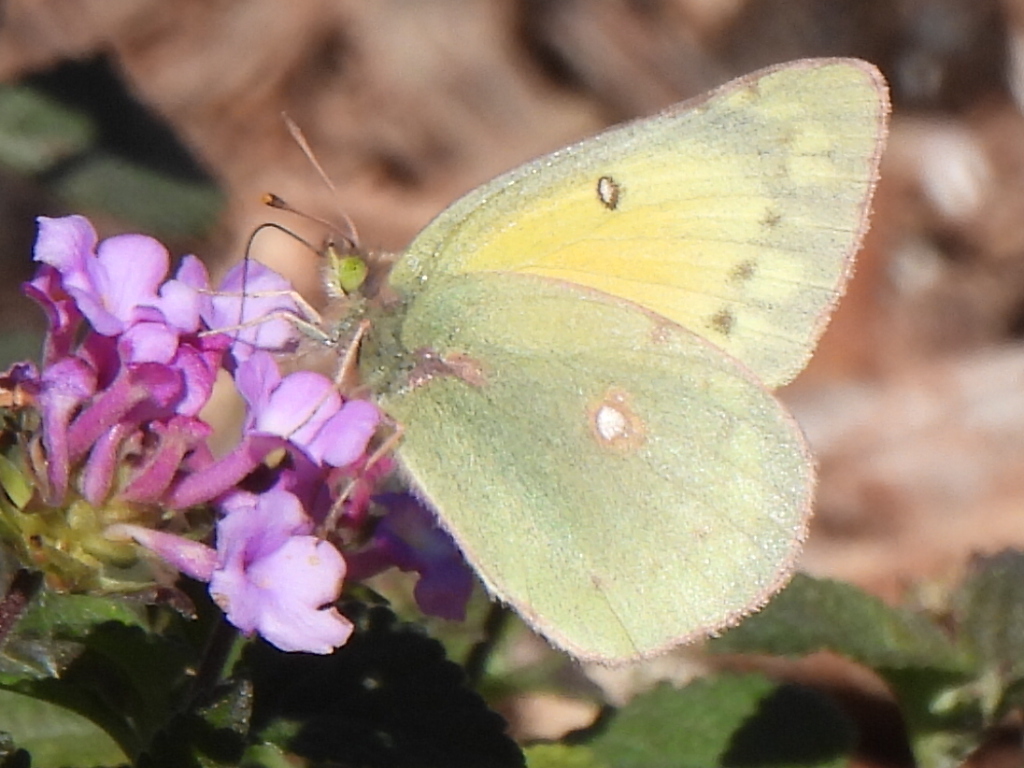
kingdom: Animalia
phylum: Arthropoda
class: Insecta
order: Lepidoptera
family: Pieridae
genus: Colias
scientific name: Colias eurytheme
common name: Alfalfa butterfly
